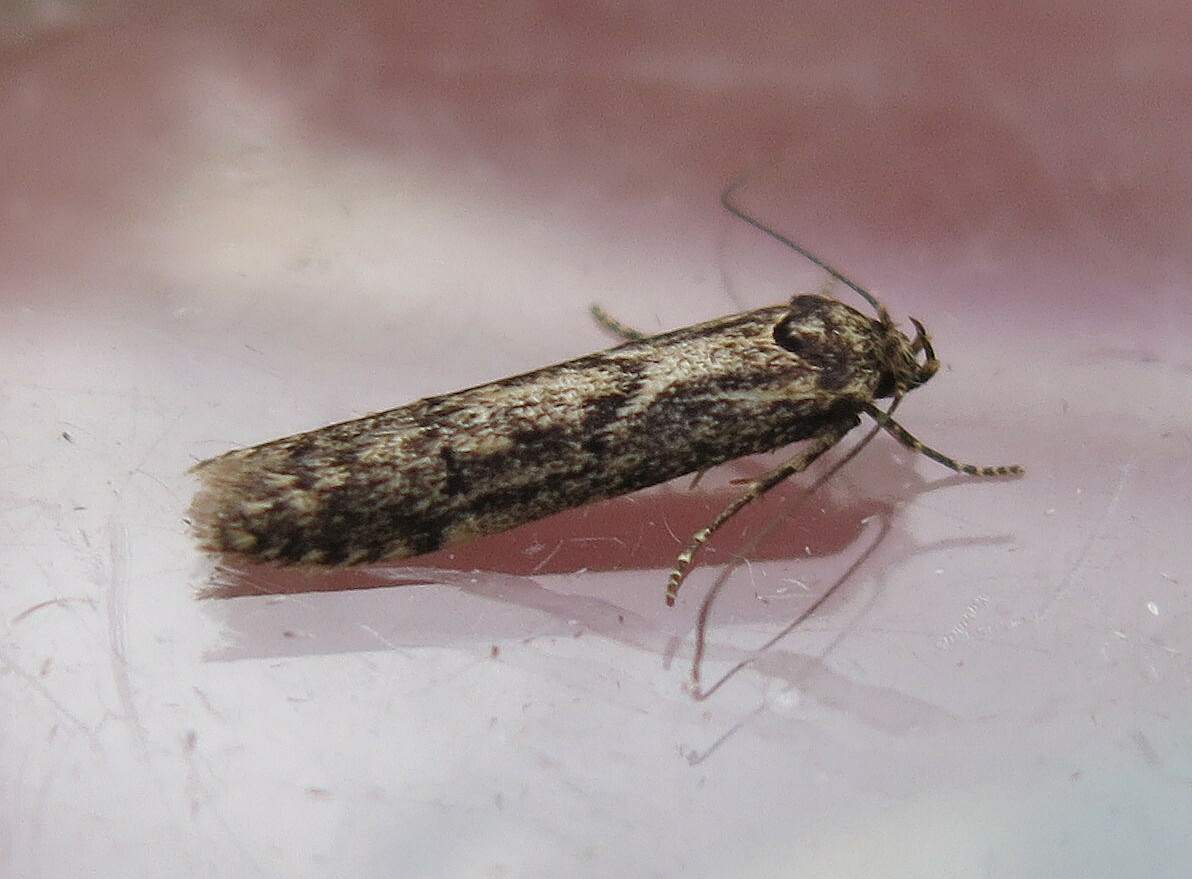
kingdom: Animalia
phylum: Arthropoda
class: Insecta
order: Lepidoptera
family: Blastobasidae
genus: Blastobasis
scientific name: Blastobasis adustella
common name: Dingy dowd
